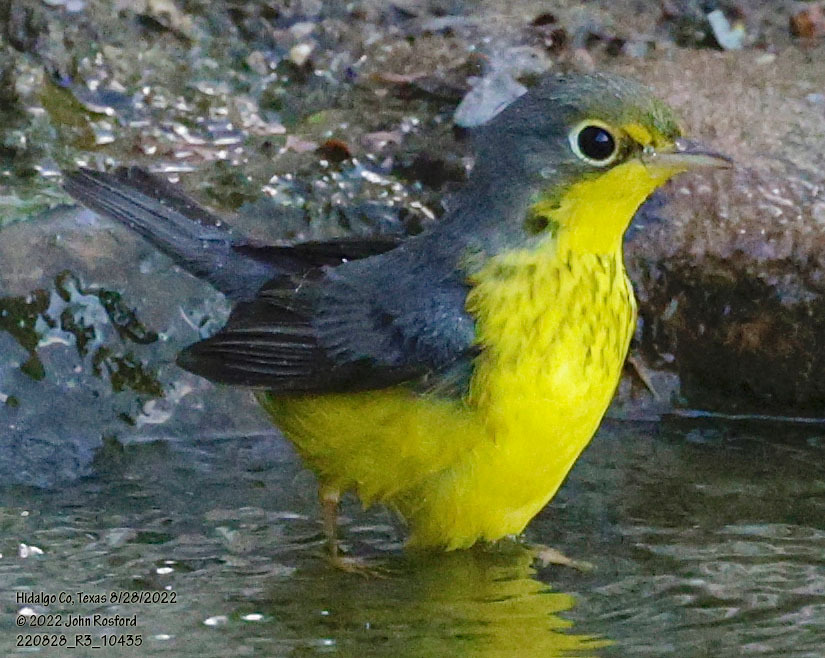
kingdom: Animalia
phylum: Chordata
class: Aves
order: Passeriformes
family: Parulidae
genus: Cardellina
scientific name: Cardellina canadensis
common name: Canada warbler
